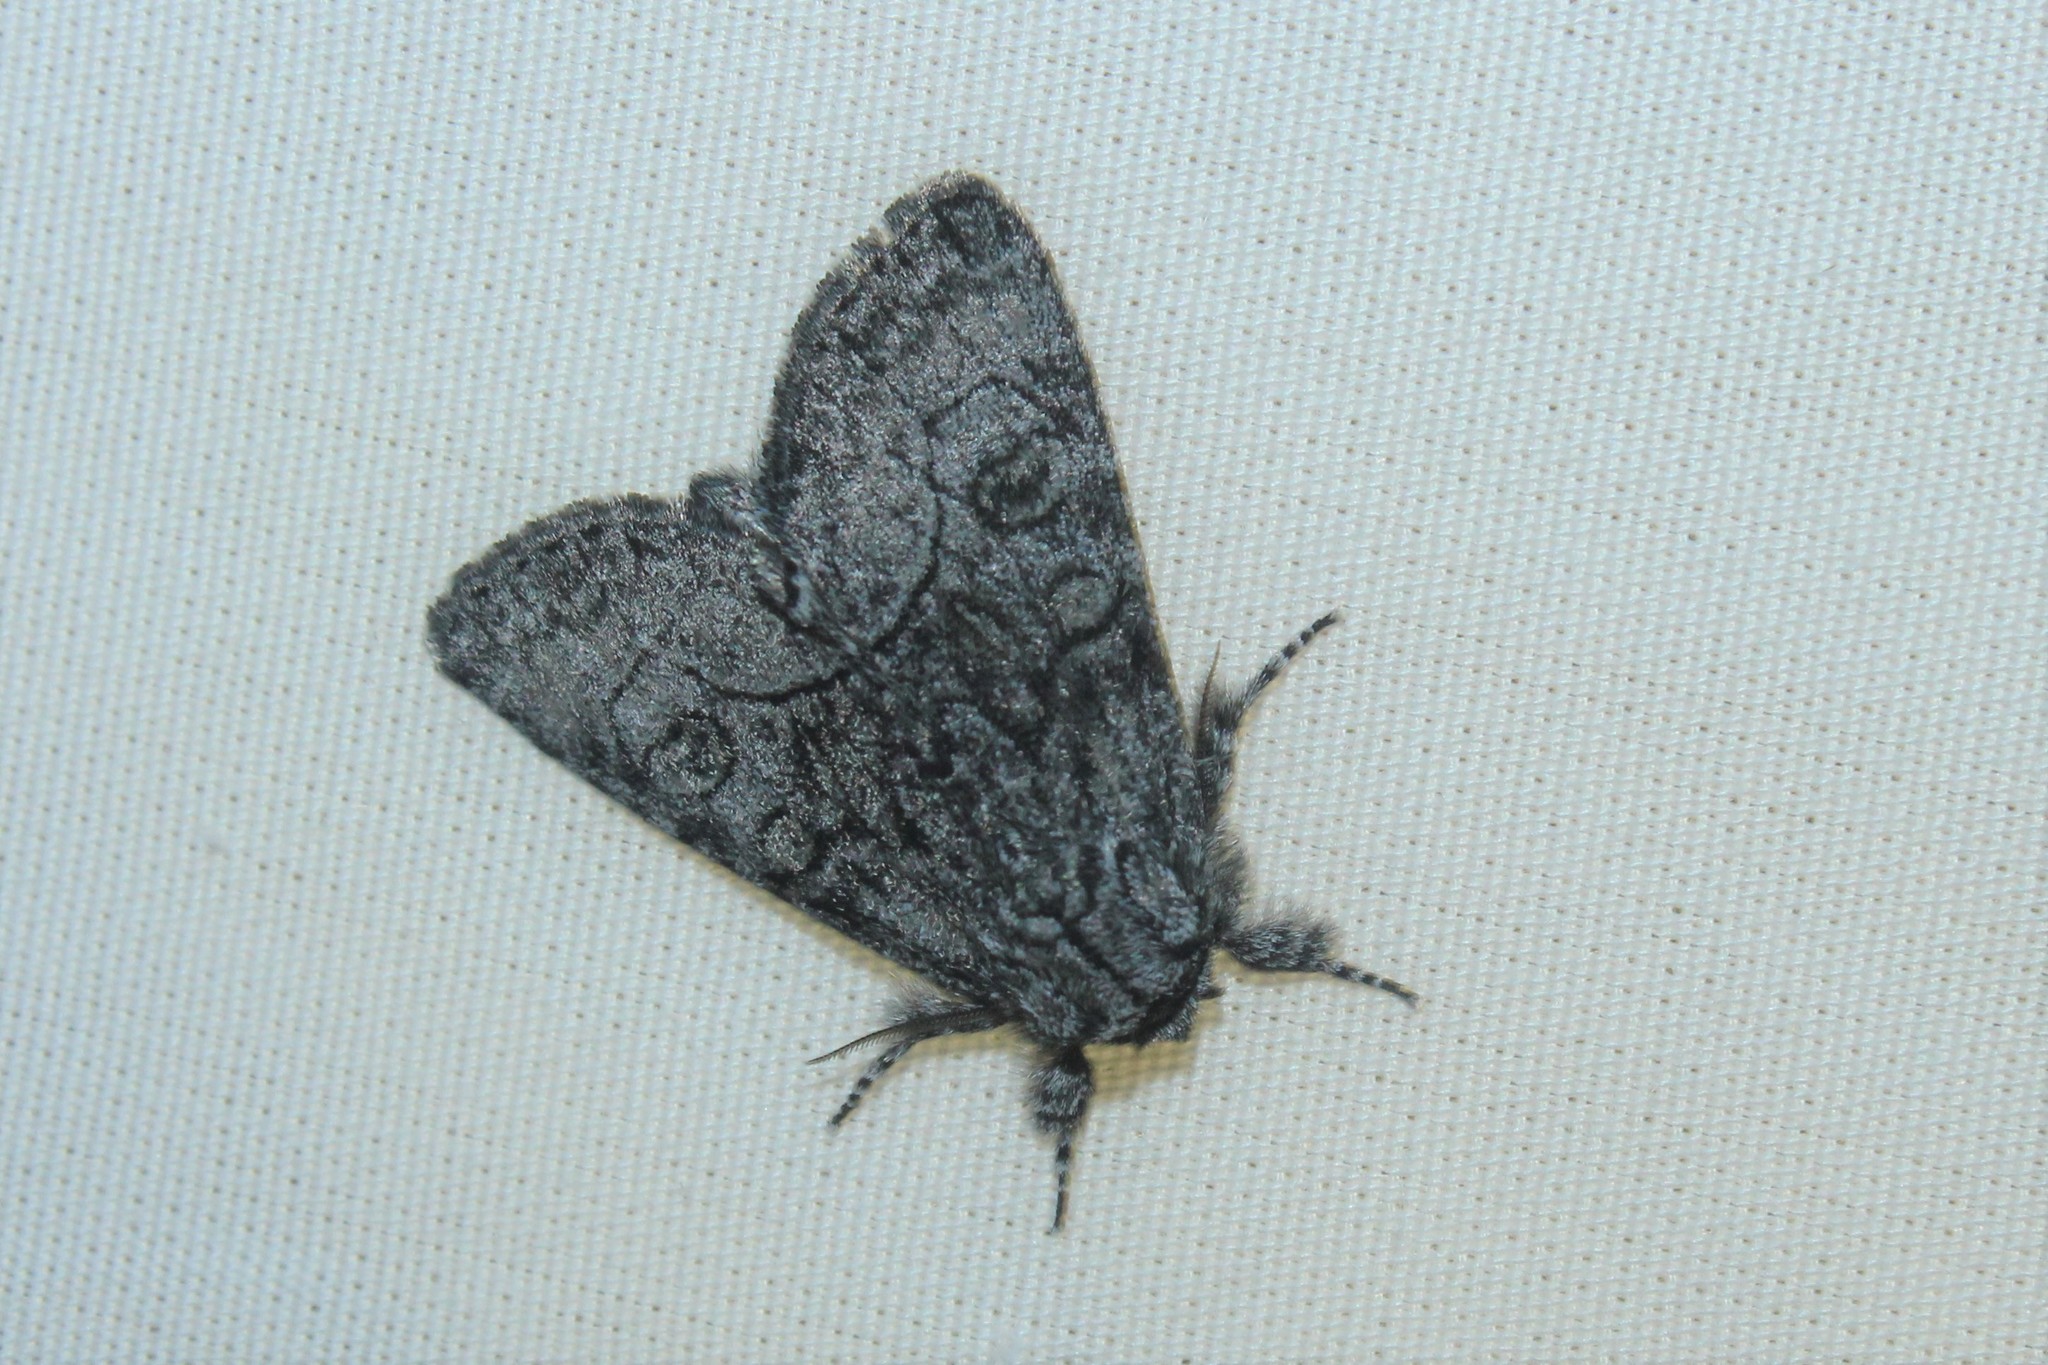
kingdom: Animalia
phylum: Arthropoda
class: Insecta
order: Lepidoptera
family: Noctuidae
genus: Raphia
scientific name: Raphia frater
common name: Brother
